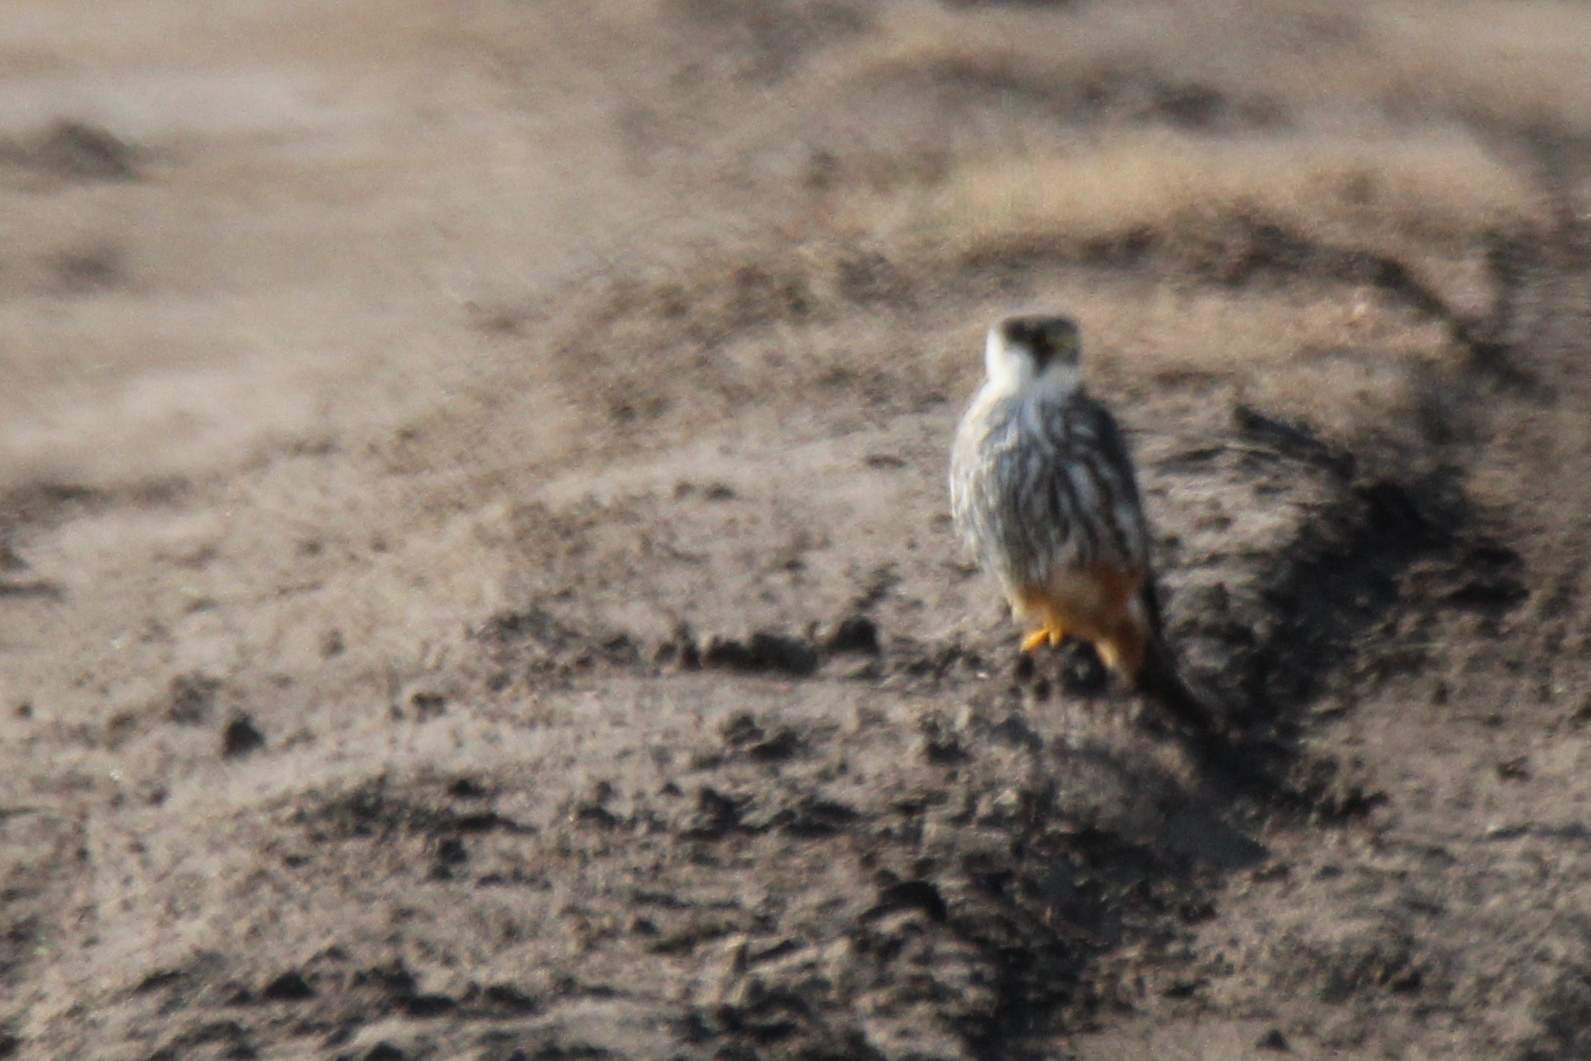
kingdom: Animalia
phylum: Chordata
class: Aves
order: Falconiformes
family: Falconidae
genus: Falco
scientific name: Falco subbuteo
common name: Eurasian hobby
